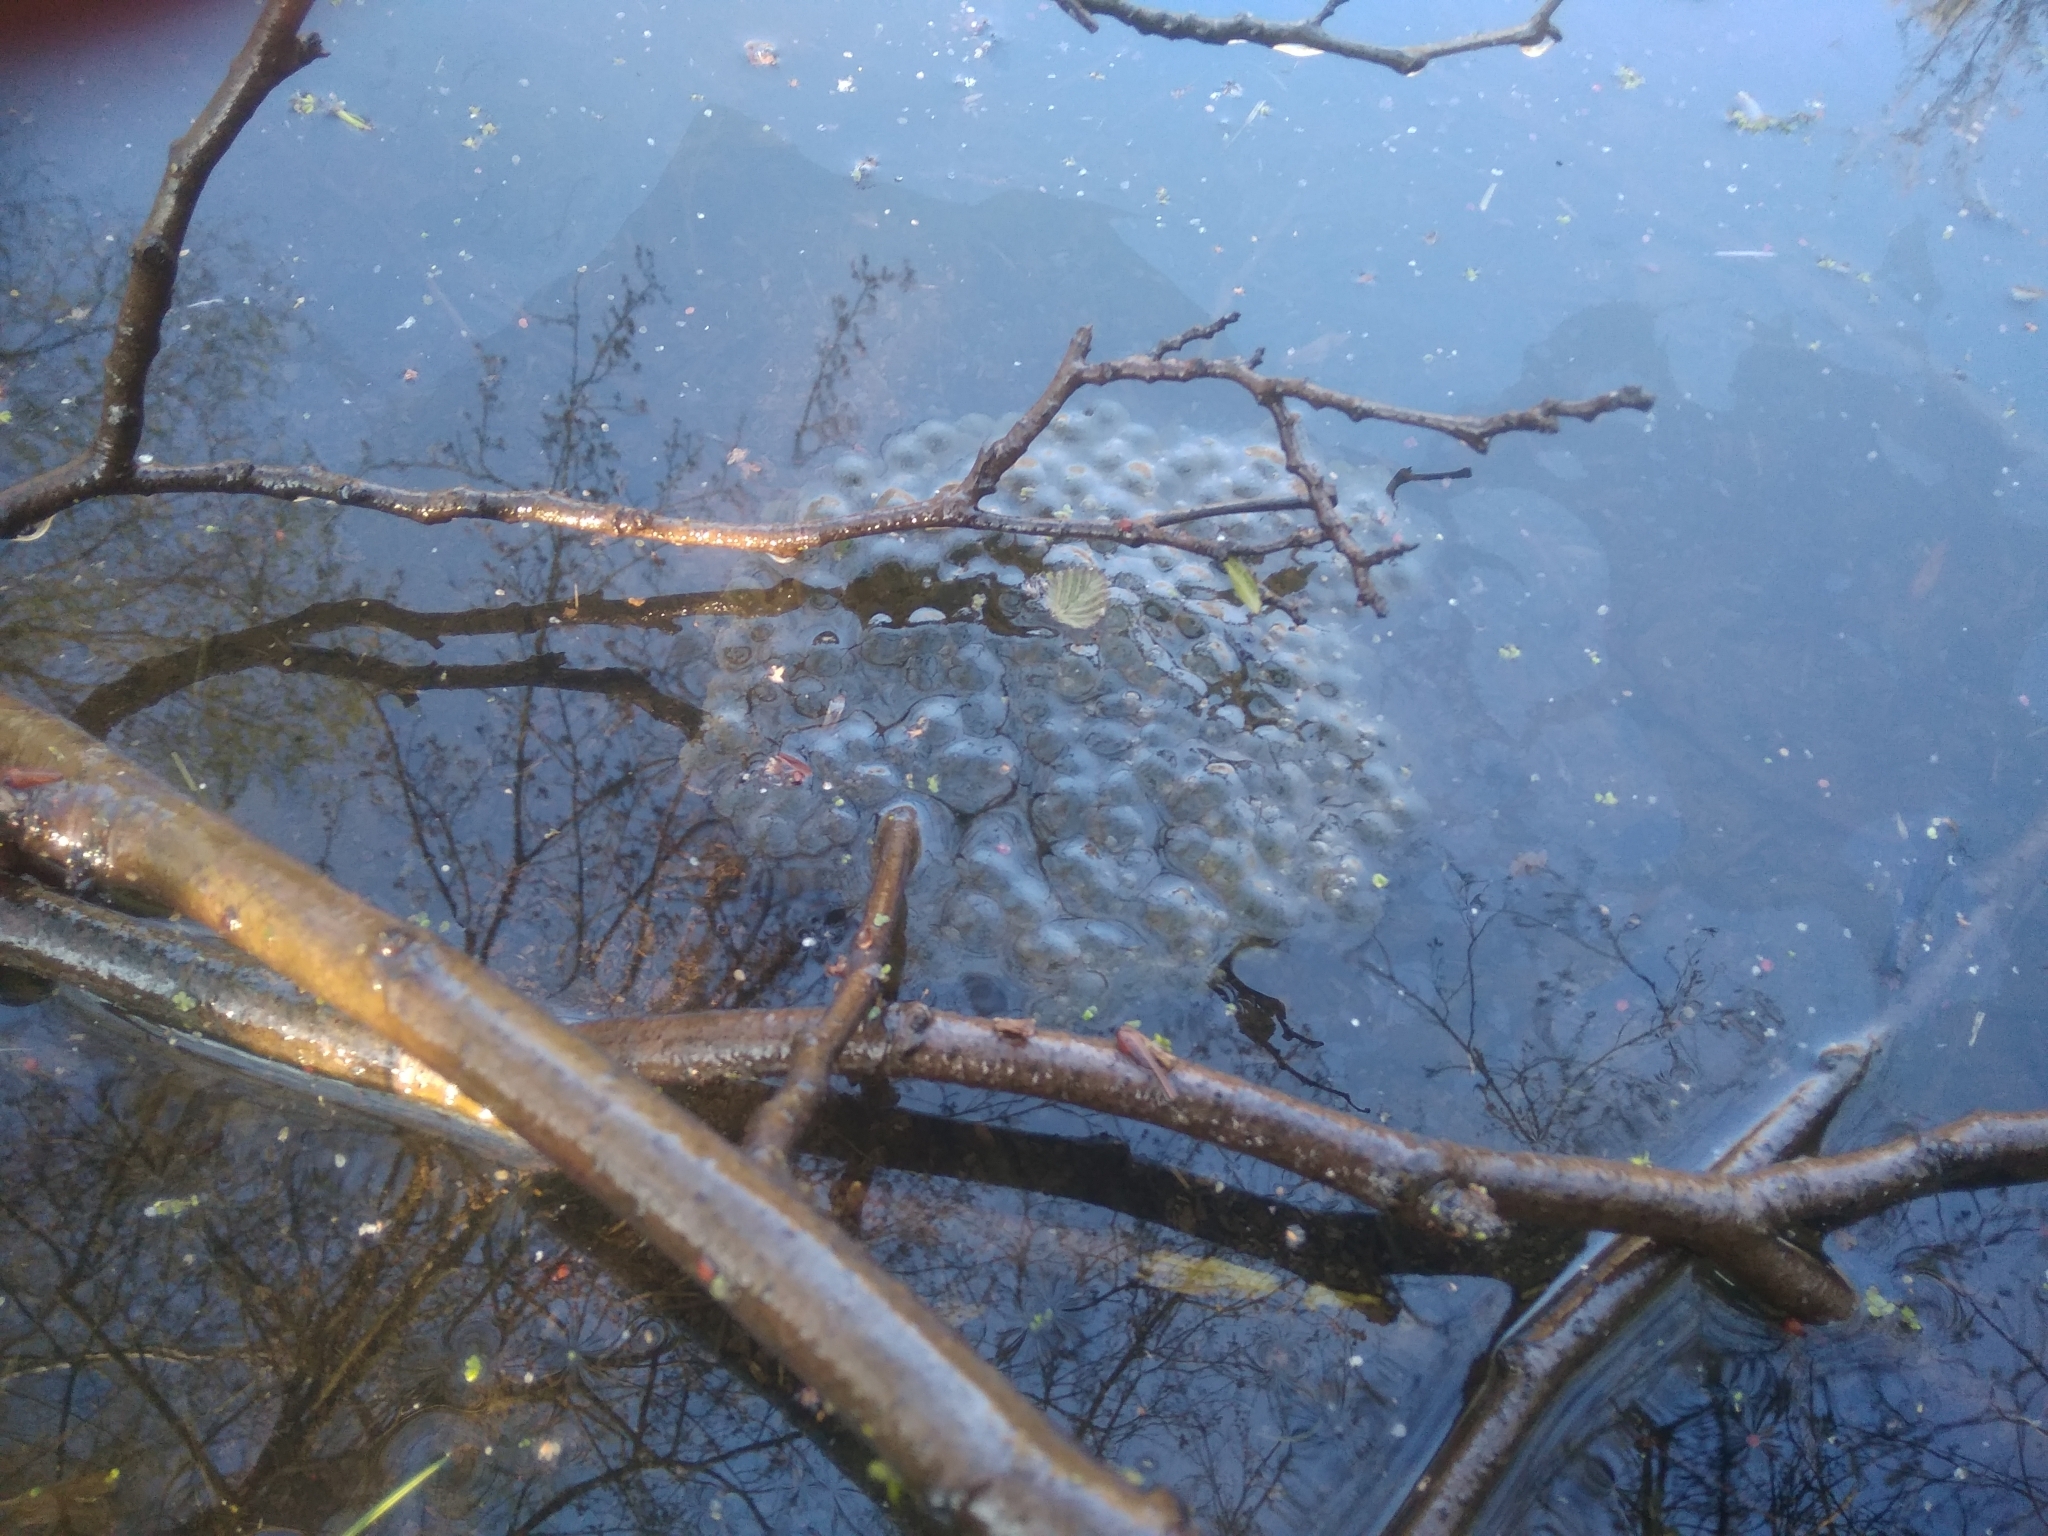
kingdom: Animalia
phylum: Chordata
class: Amphibia
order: Anura
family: Ranidae
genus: Rana
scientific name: Rana dalmatina
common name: Agile frog
